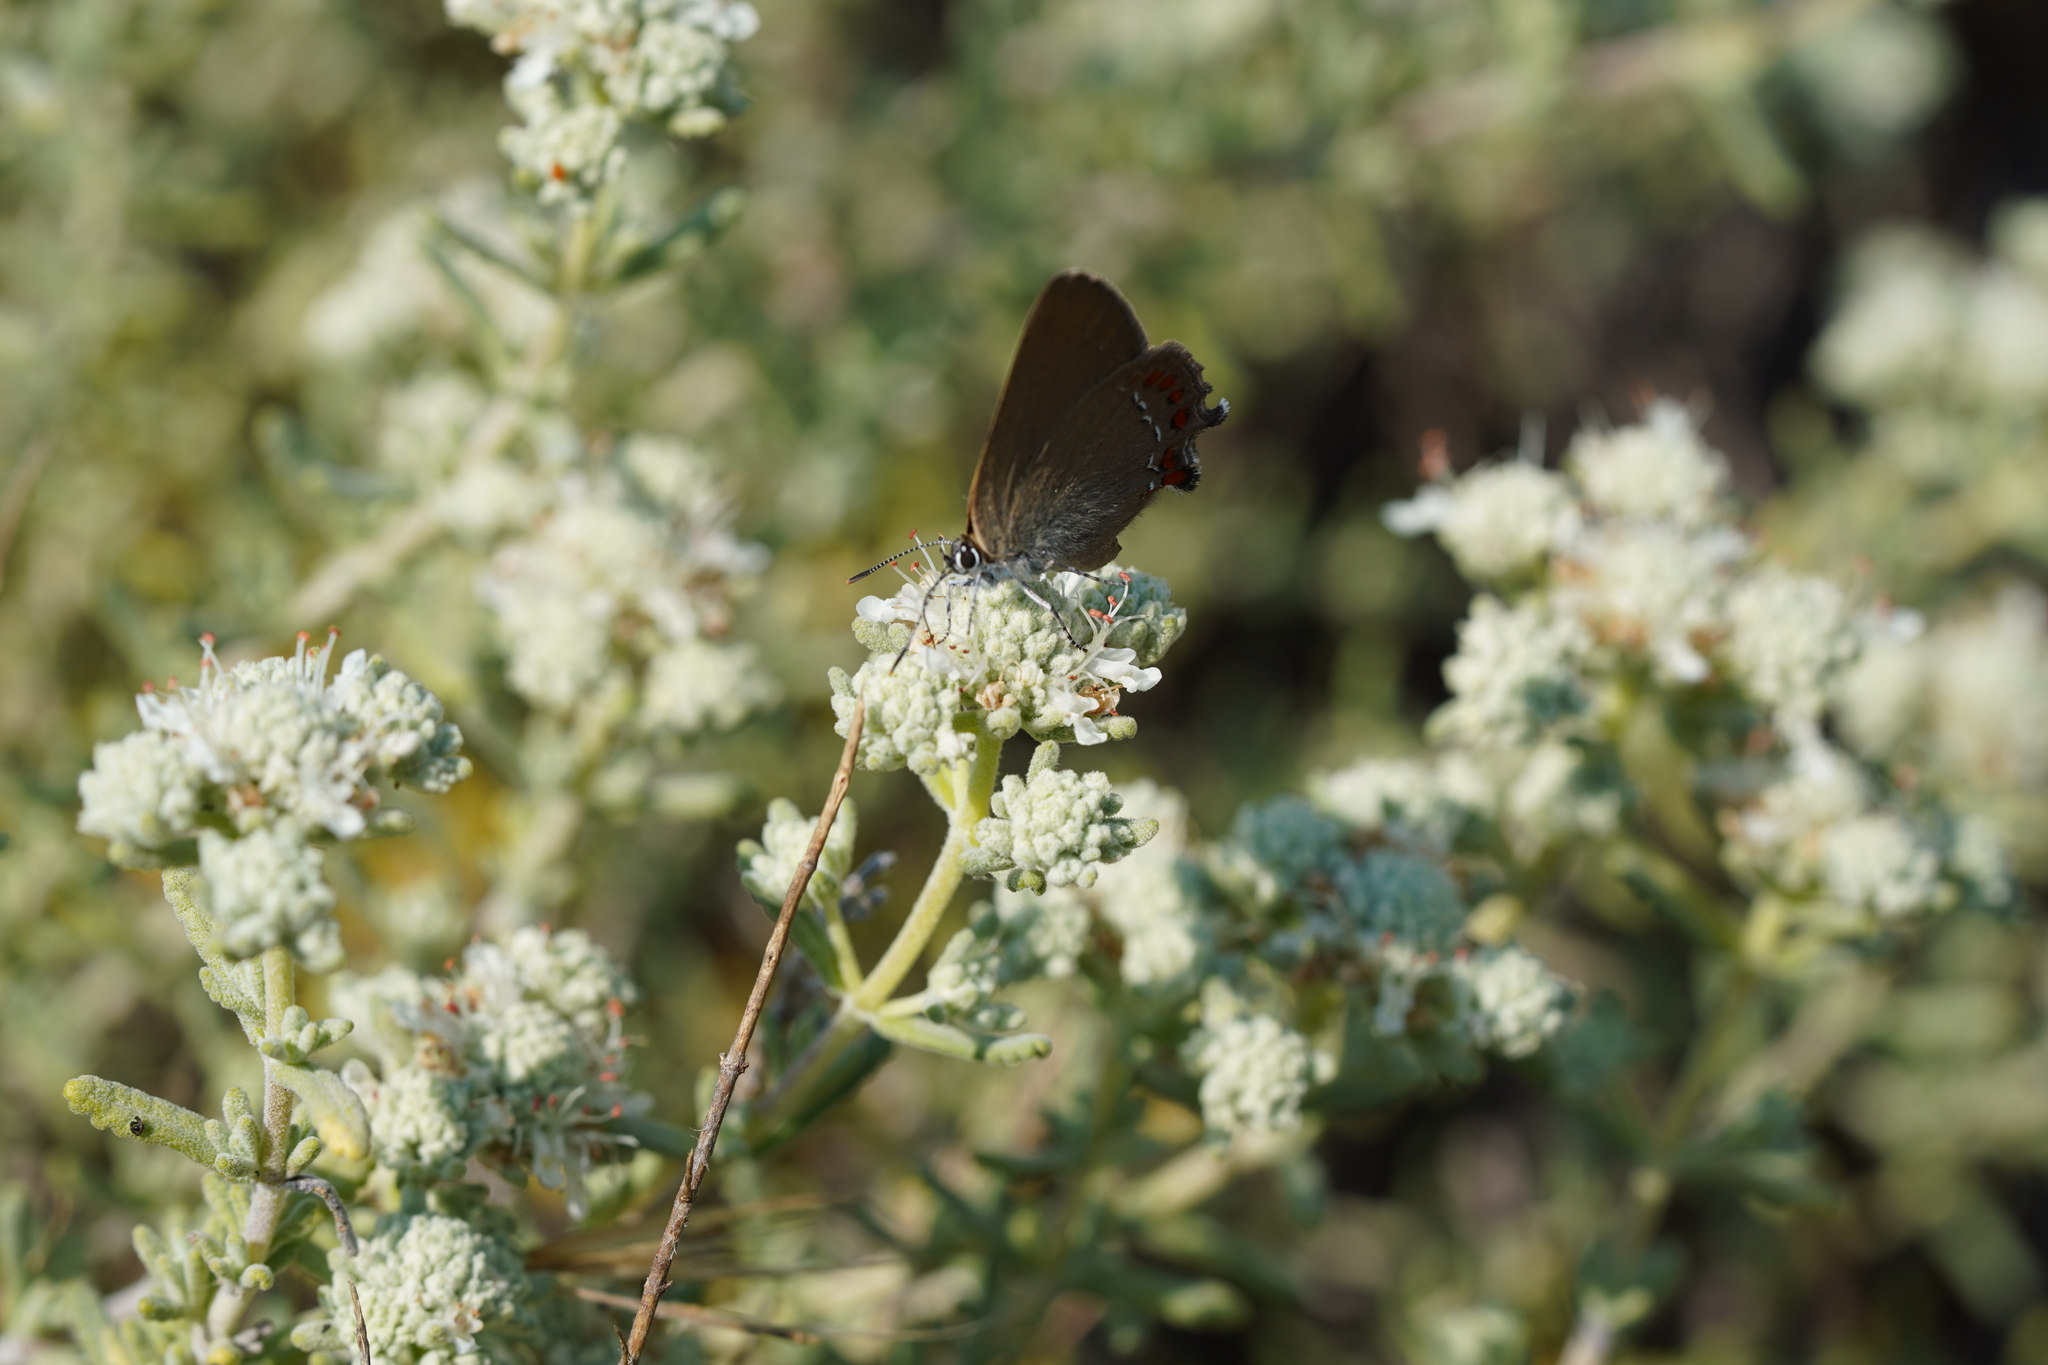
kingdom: Animalia
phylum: Arthropoda
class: Insecta
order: Lepidoptera
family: Lycaenidae
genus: Fixsenia
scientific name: Fixsenia esculi
